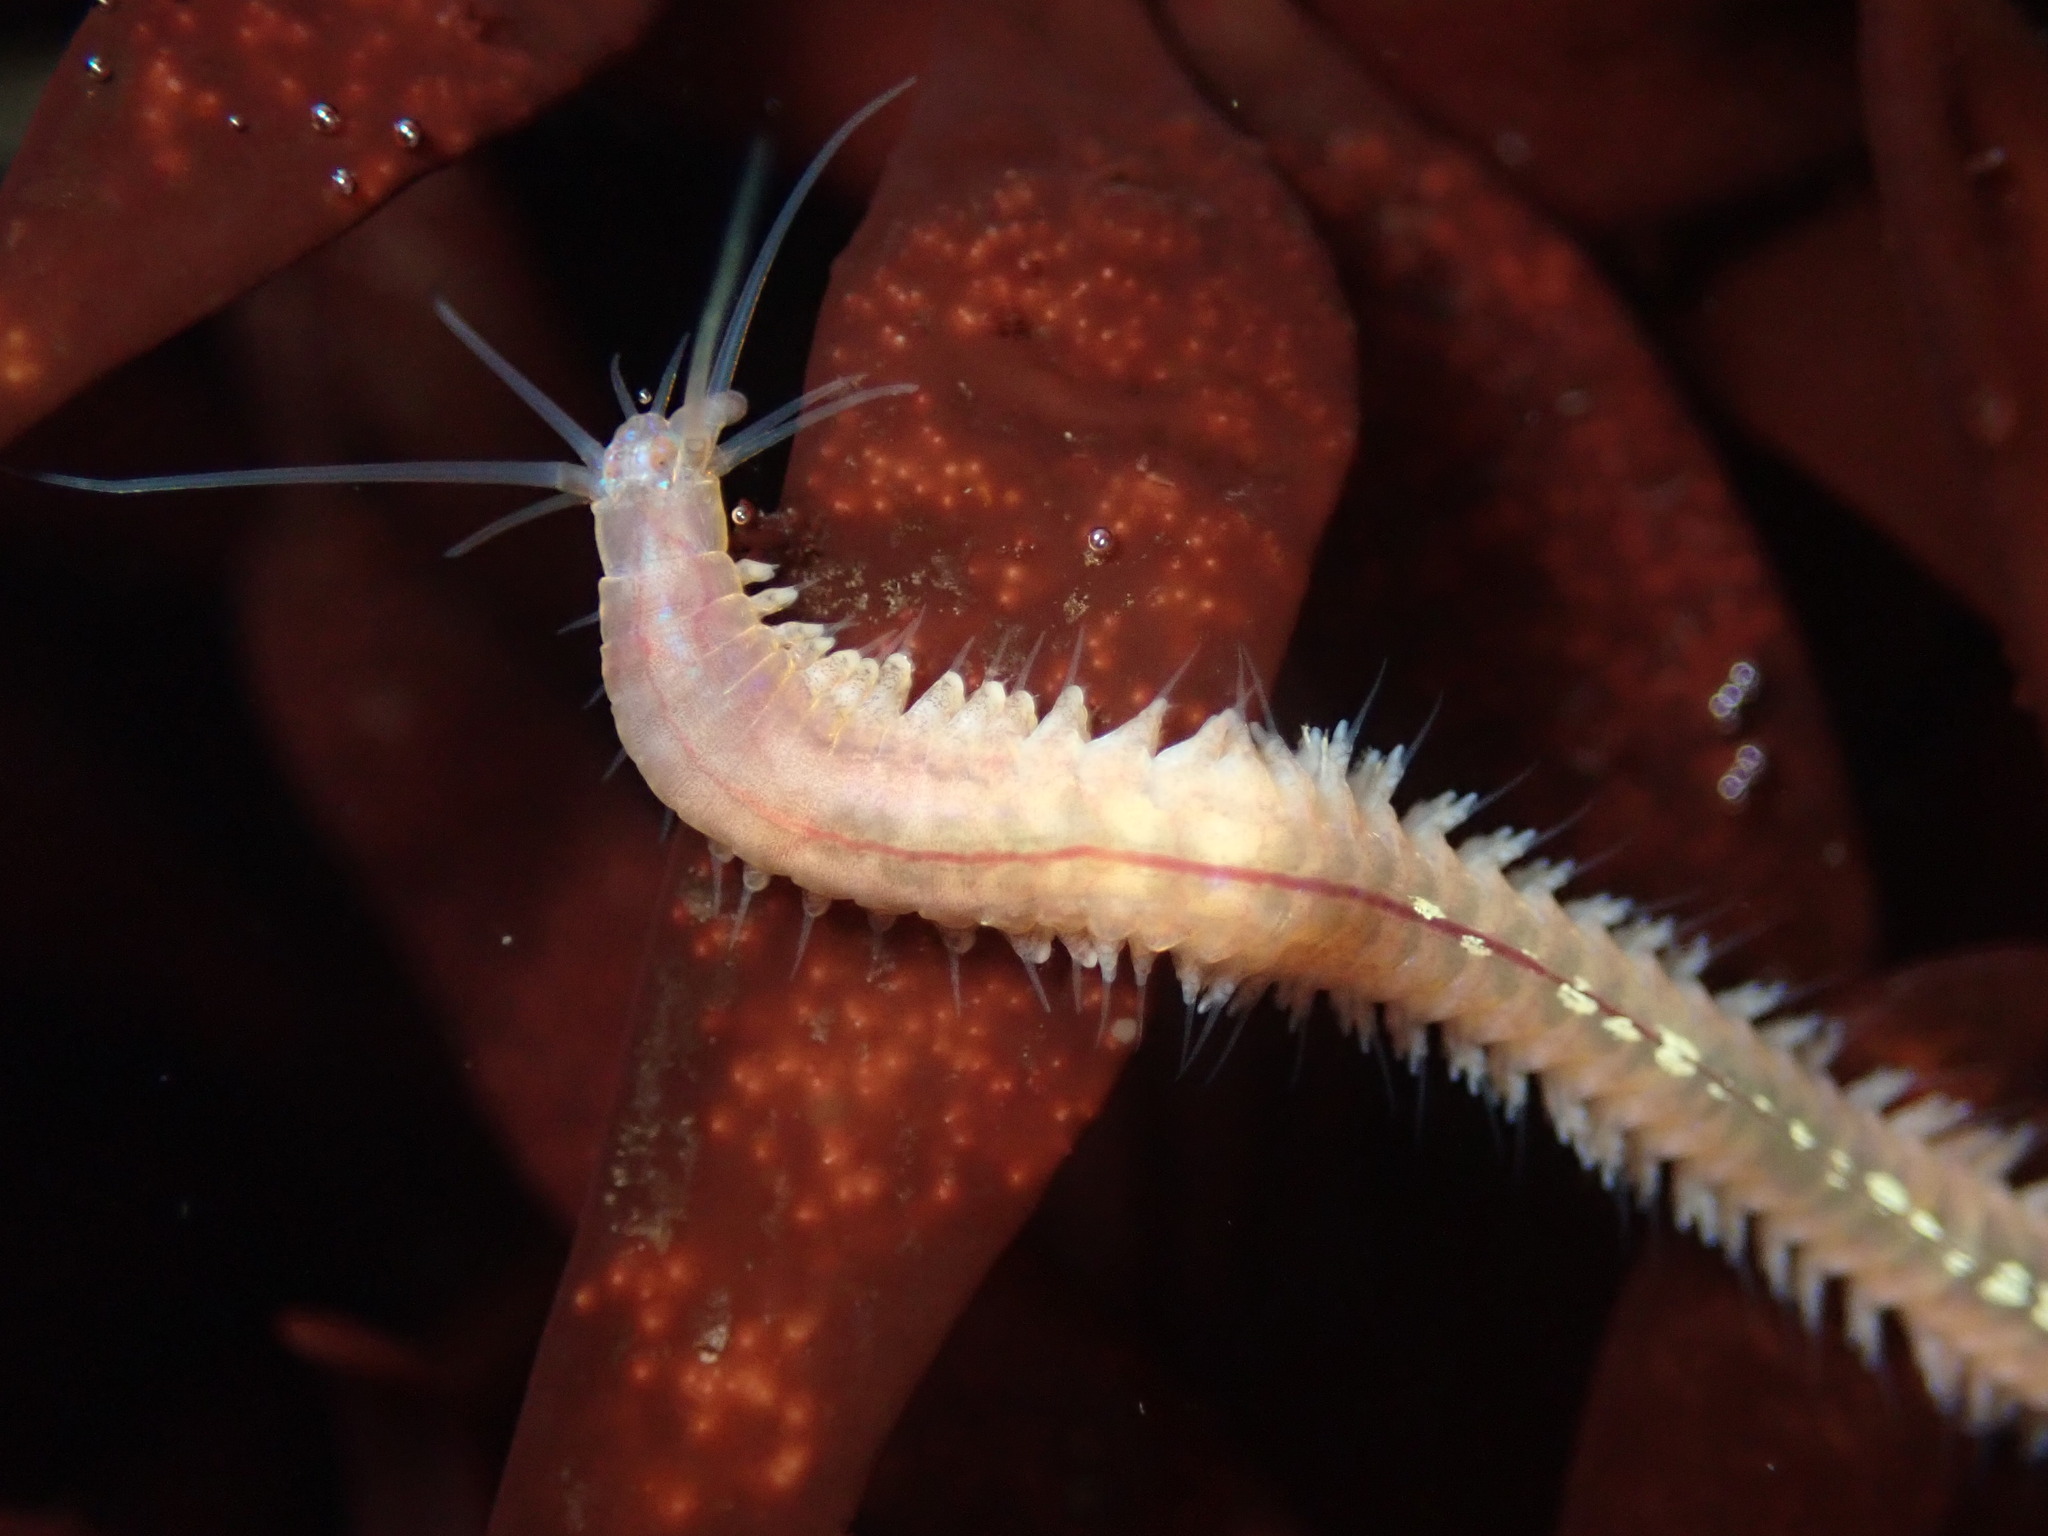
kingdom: Animalia
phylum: Annelida
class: Polychaeta
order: Phyllodocida
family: Nereididae
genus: Platynereis
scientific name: Platynereis bicanaliculata
